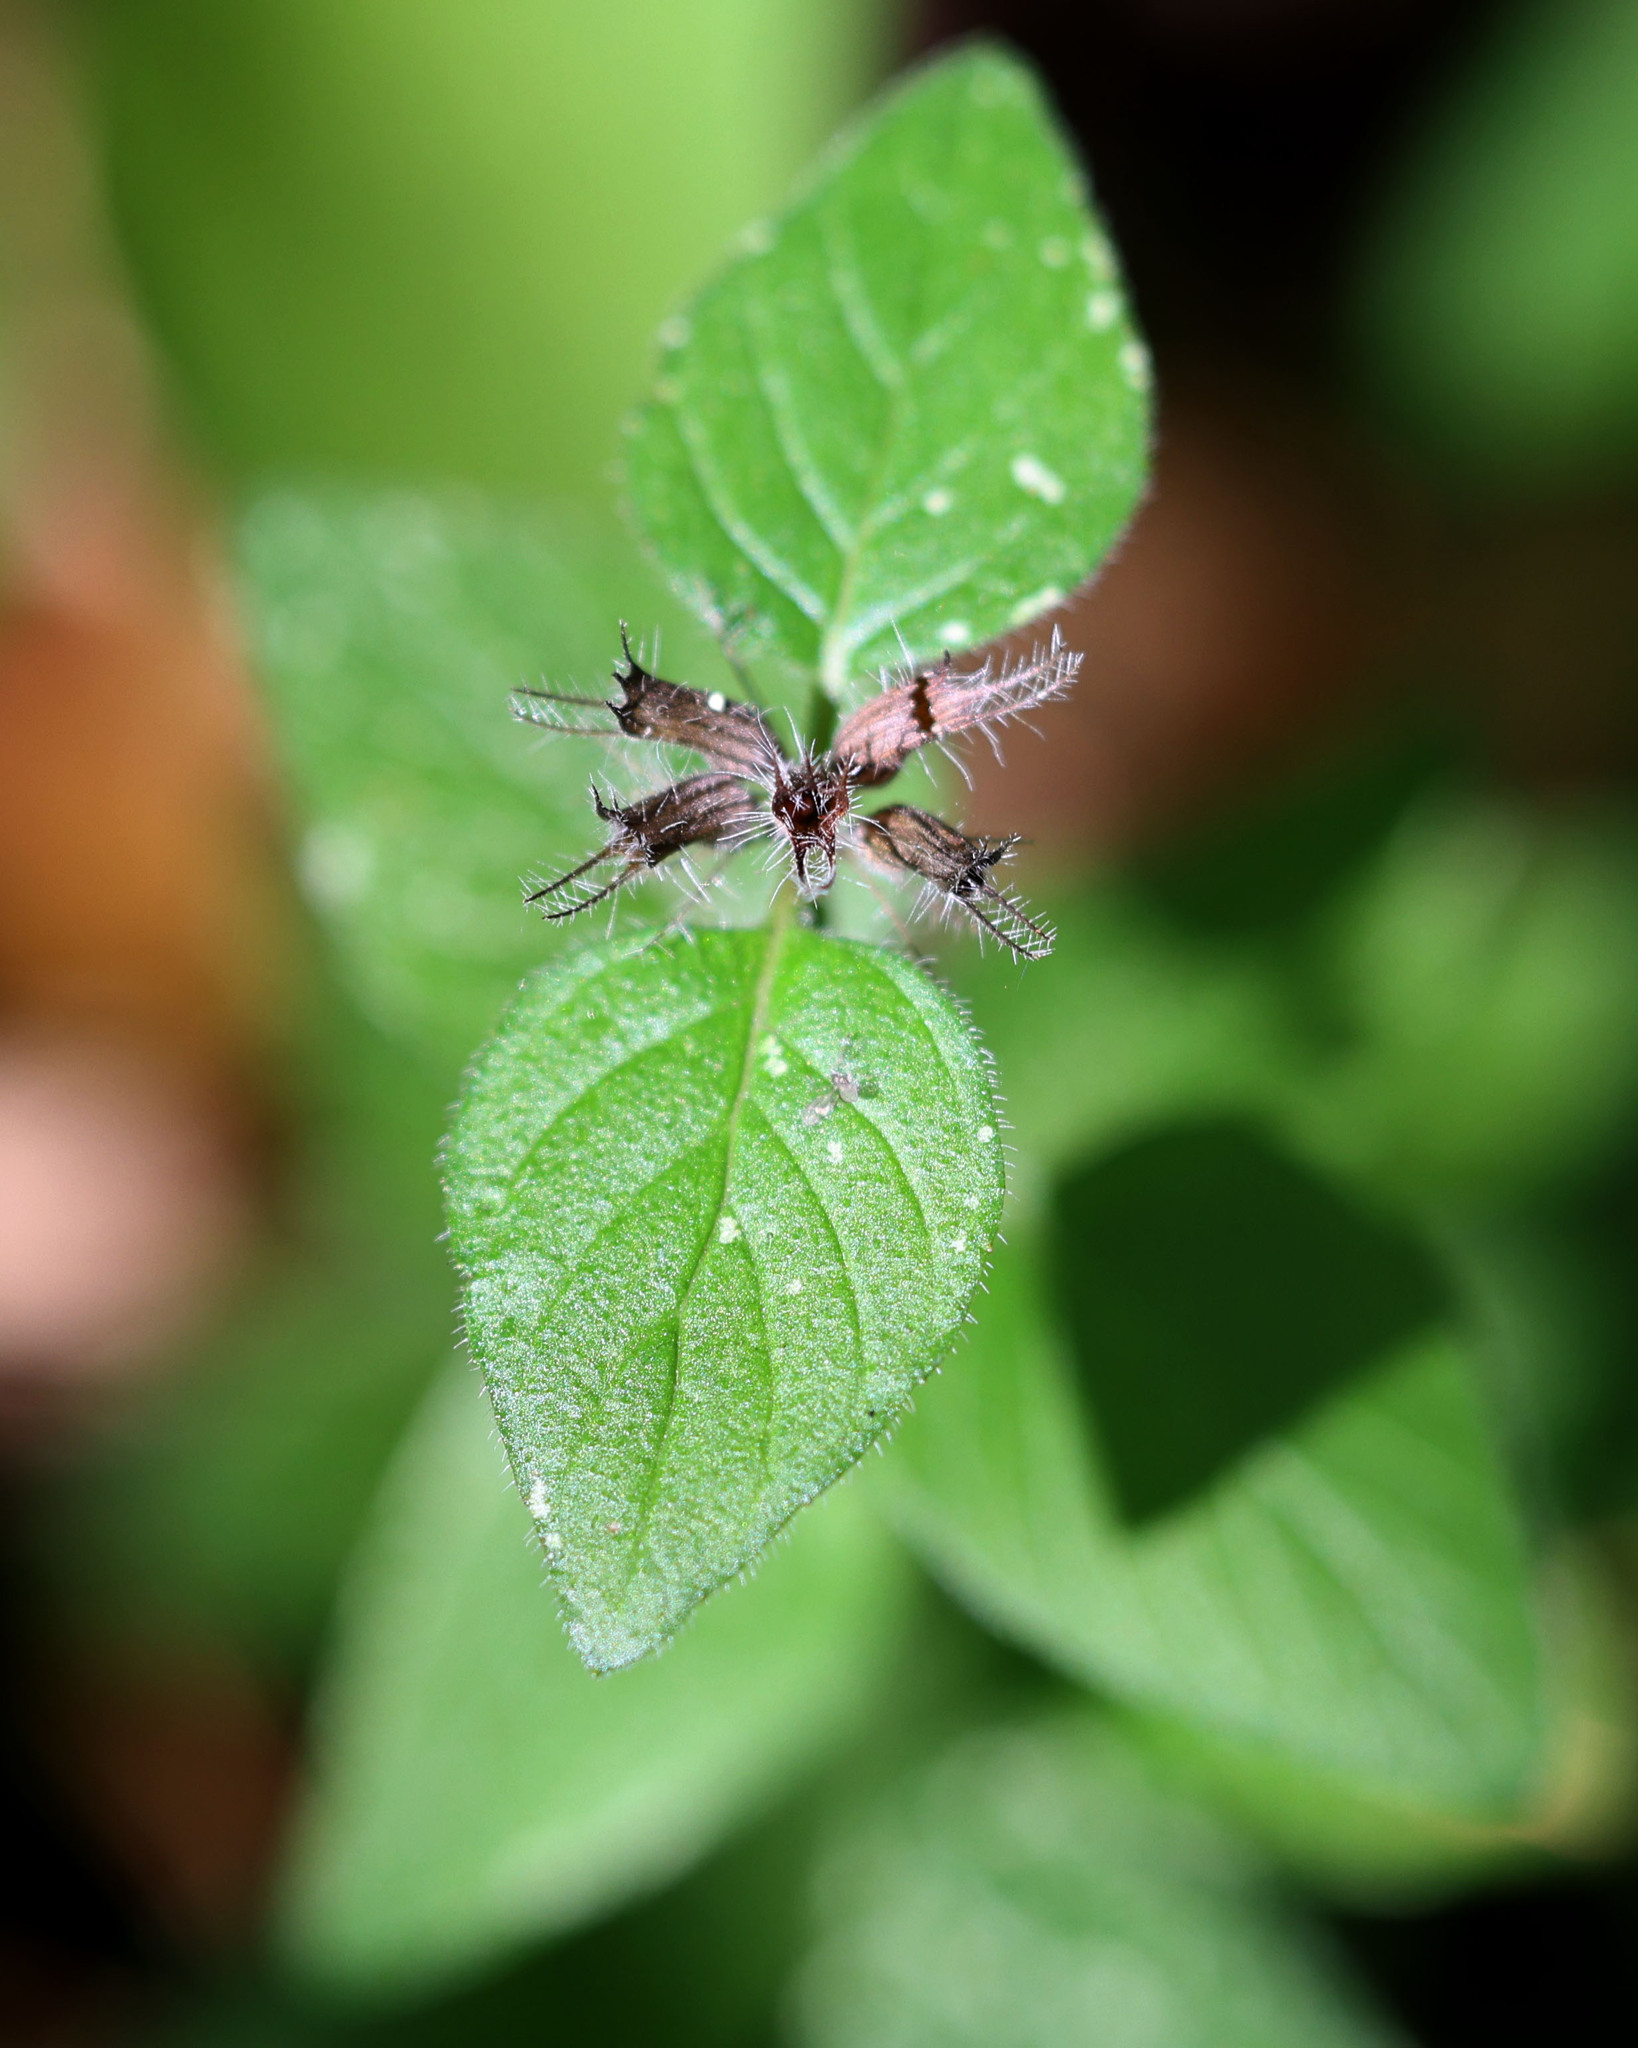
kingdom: Plantae
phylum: Tracheophyta
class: Magnoliopsida
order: Lamiales
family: Lamiaceae
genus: Clinopodium
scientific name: Clinopodium vulgare
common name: Wild basil
